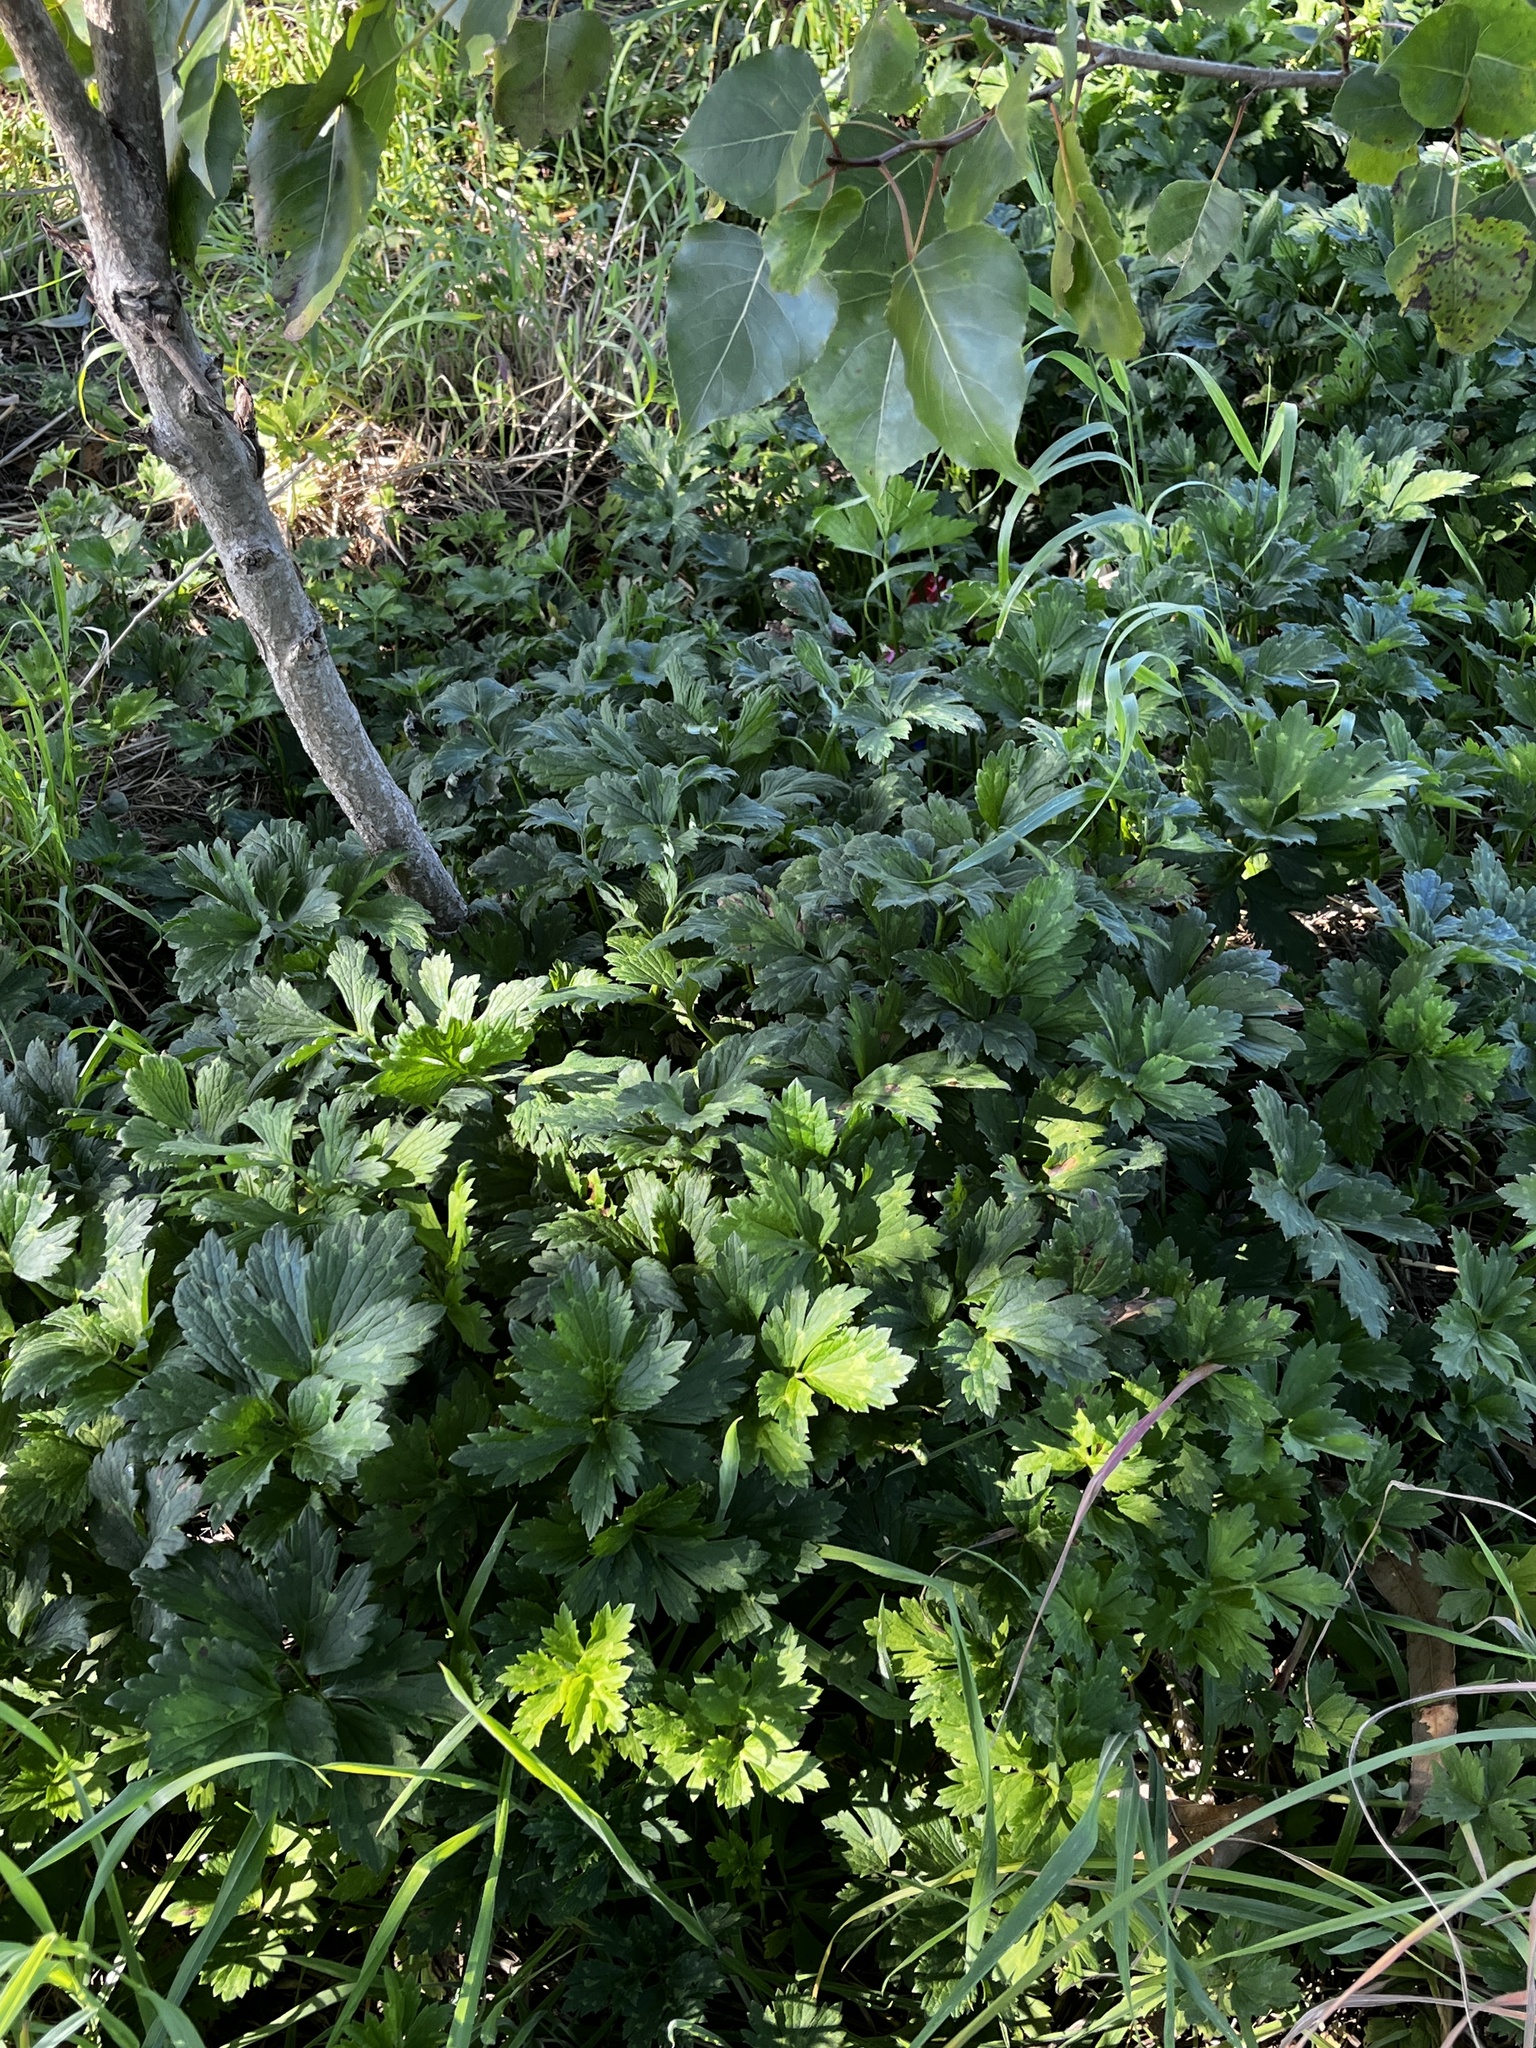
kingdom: Plantae
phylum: Tracheophyta
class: Magnoliopsida
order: Ranunculales
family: Ranunculaceae
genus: Ranunculus
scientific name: Ranunculus repens
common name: Creeping buttercup
